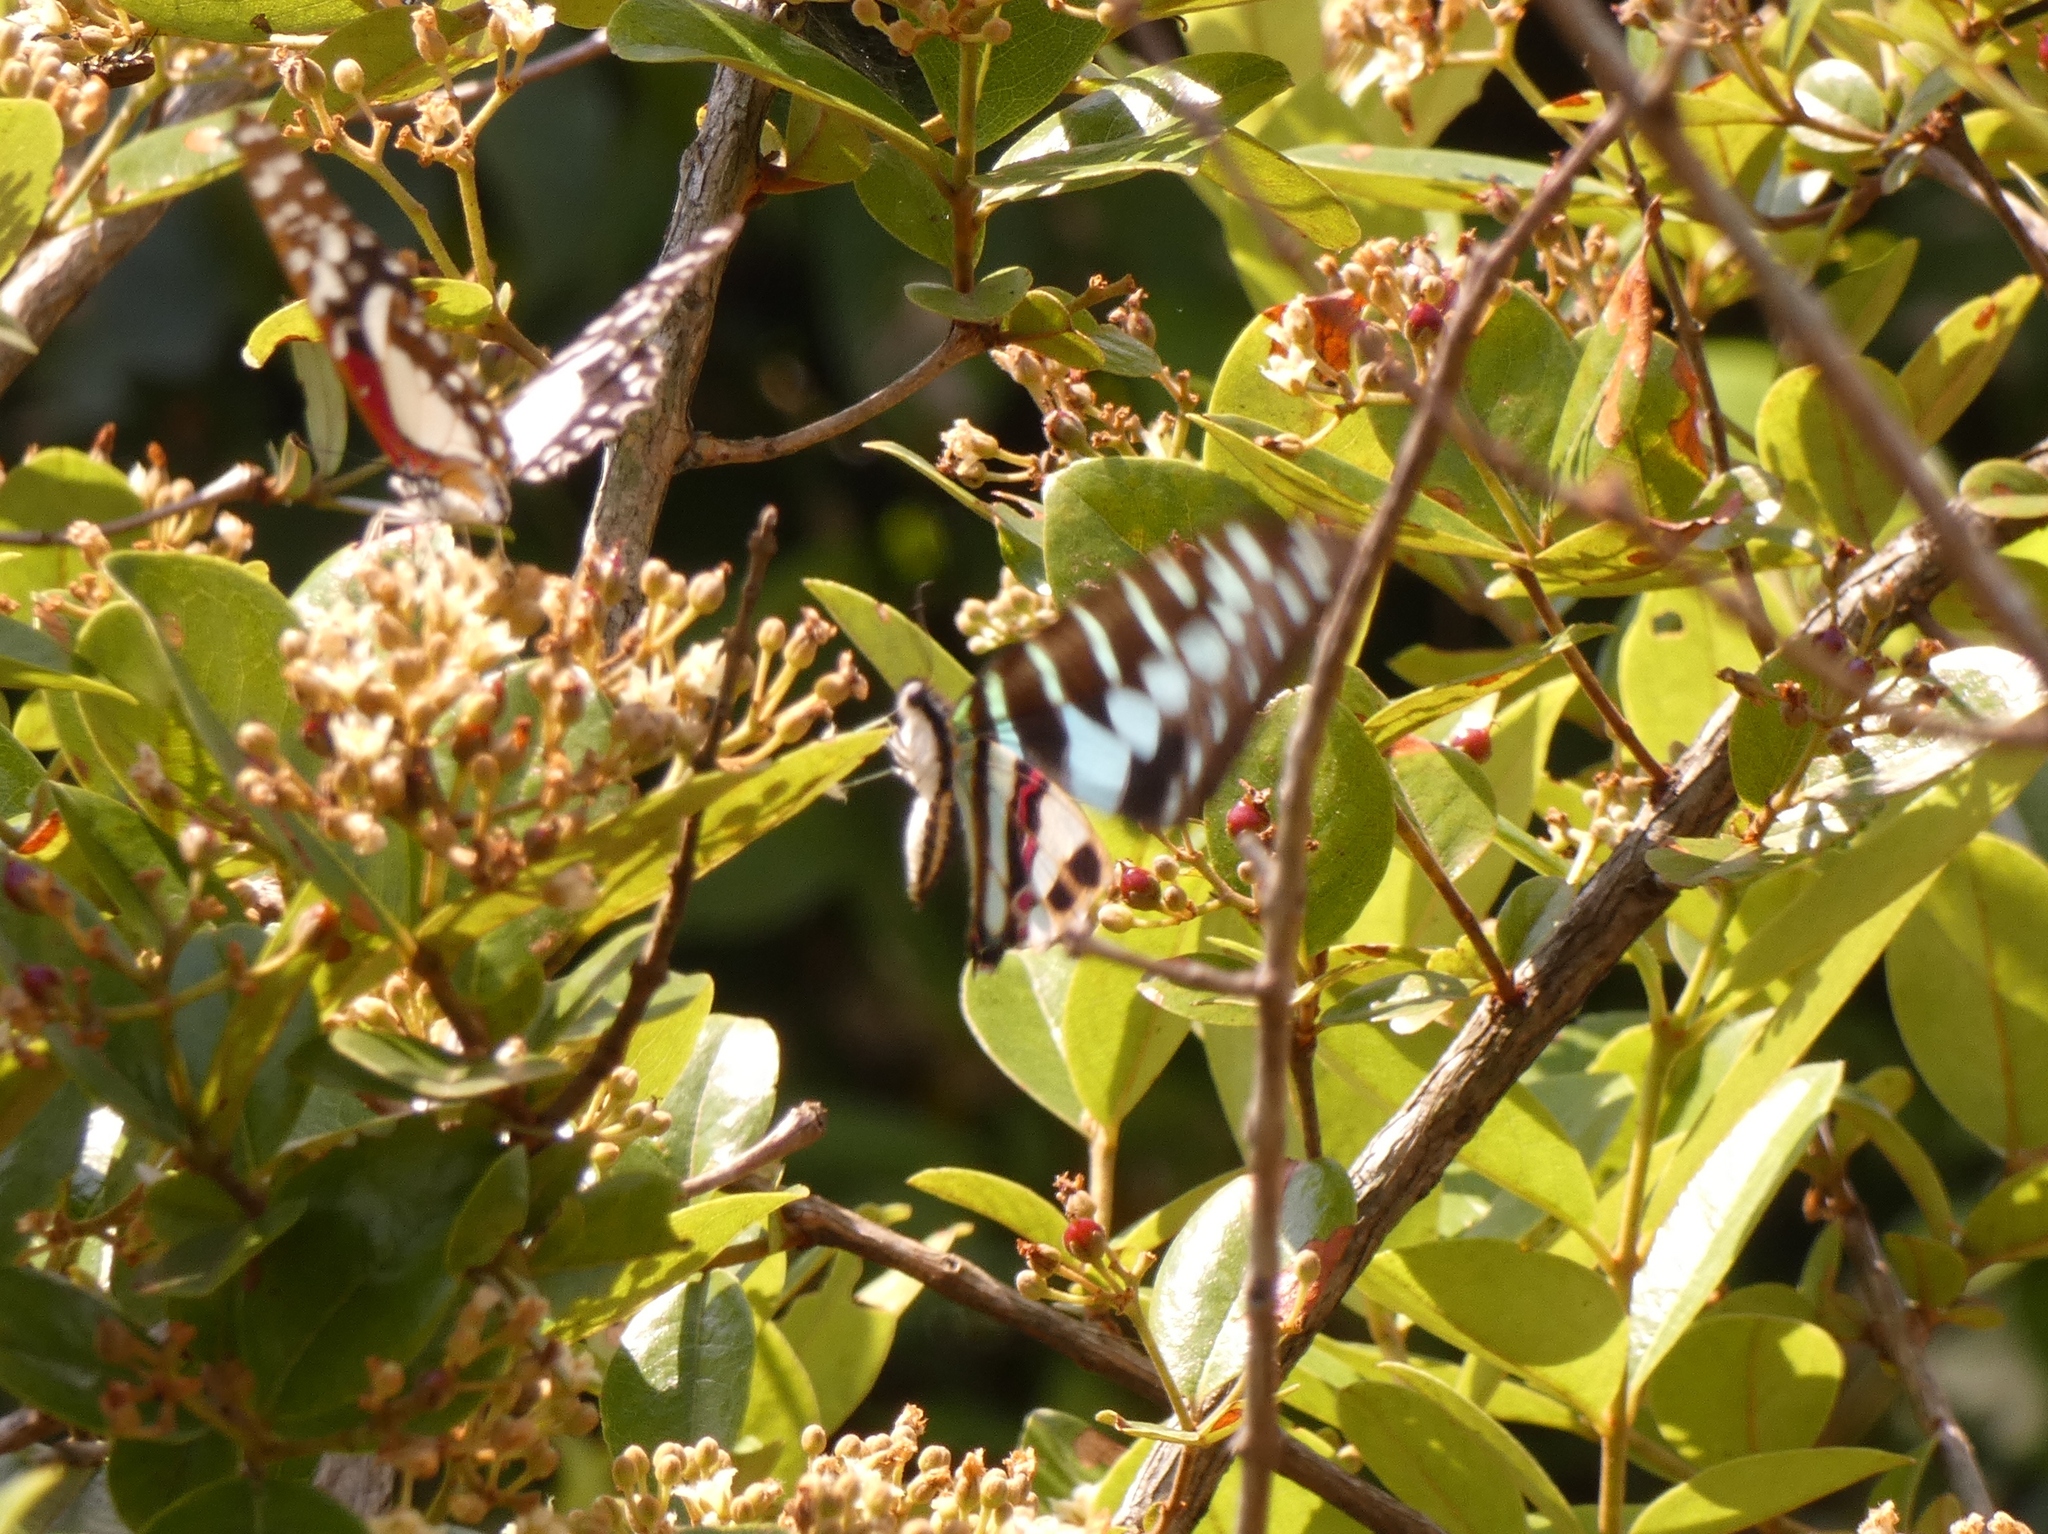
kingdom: Animalia
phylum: Arthropoda
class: Insecta
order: Lepidoptera
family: Papilionidae
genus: Graphium
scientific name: Graphium policenes
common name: Common swordtail
